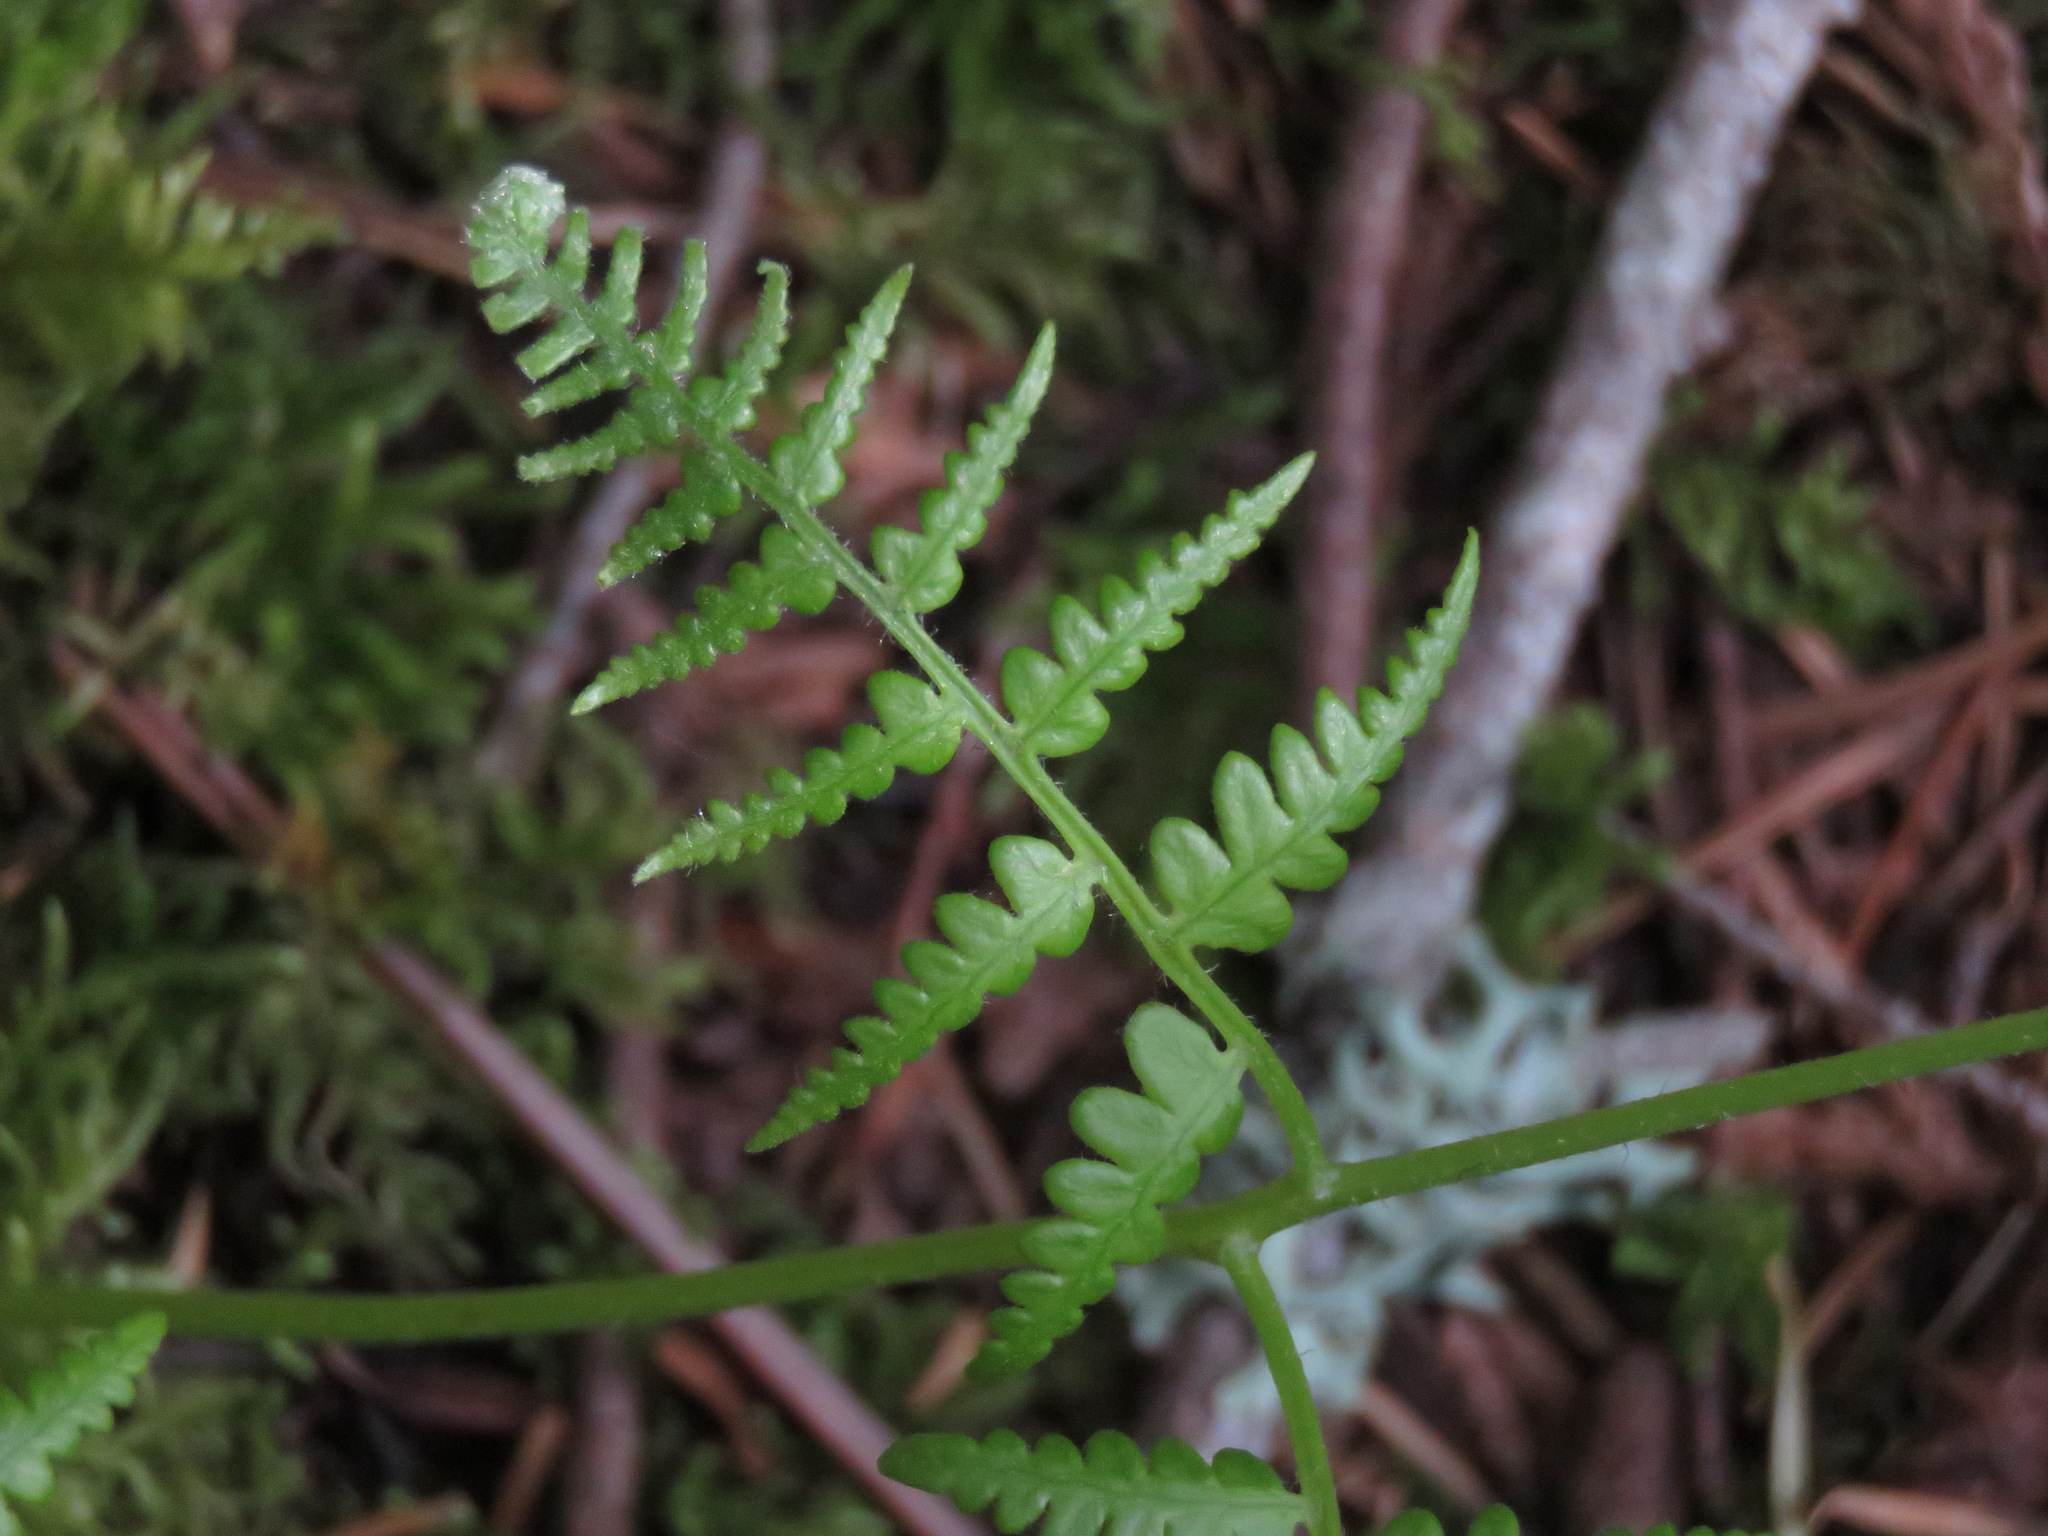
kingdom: Plantae
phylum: Tracheophyta
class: Polypodiopsida
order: Polypodiales
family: Dennstaedtiaceae
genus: Pteridium
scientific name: Pteridium aquilinum
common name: Bracken
